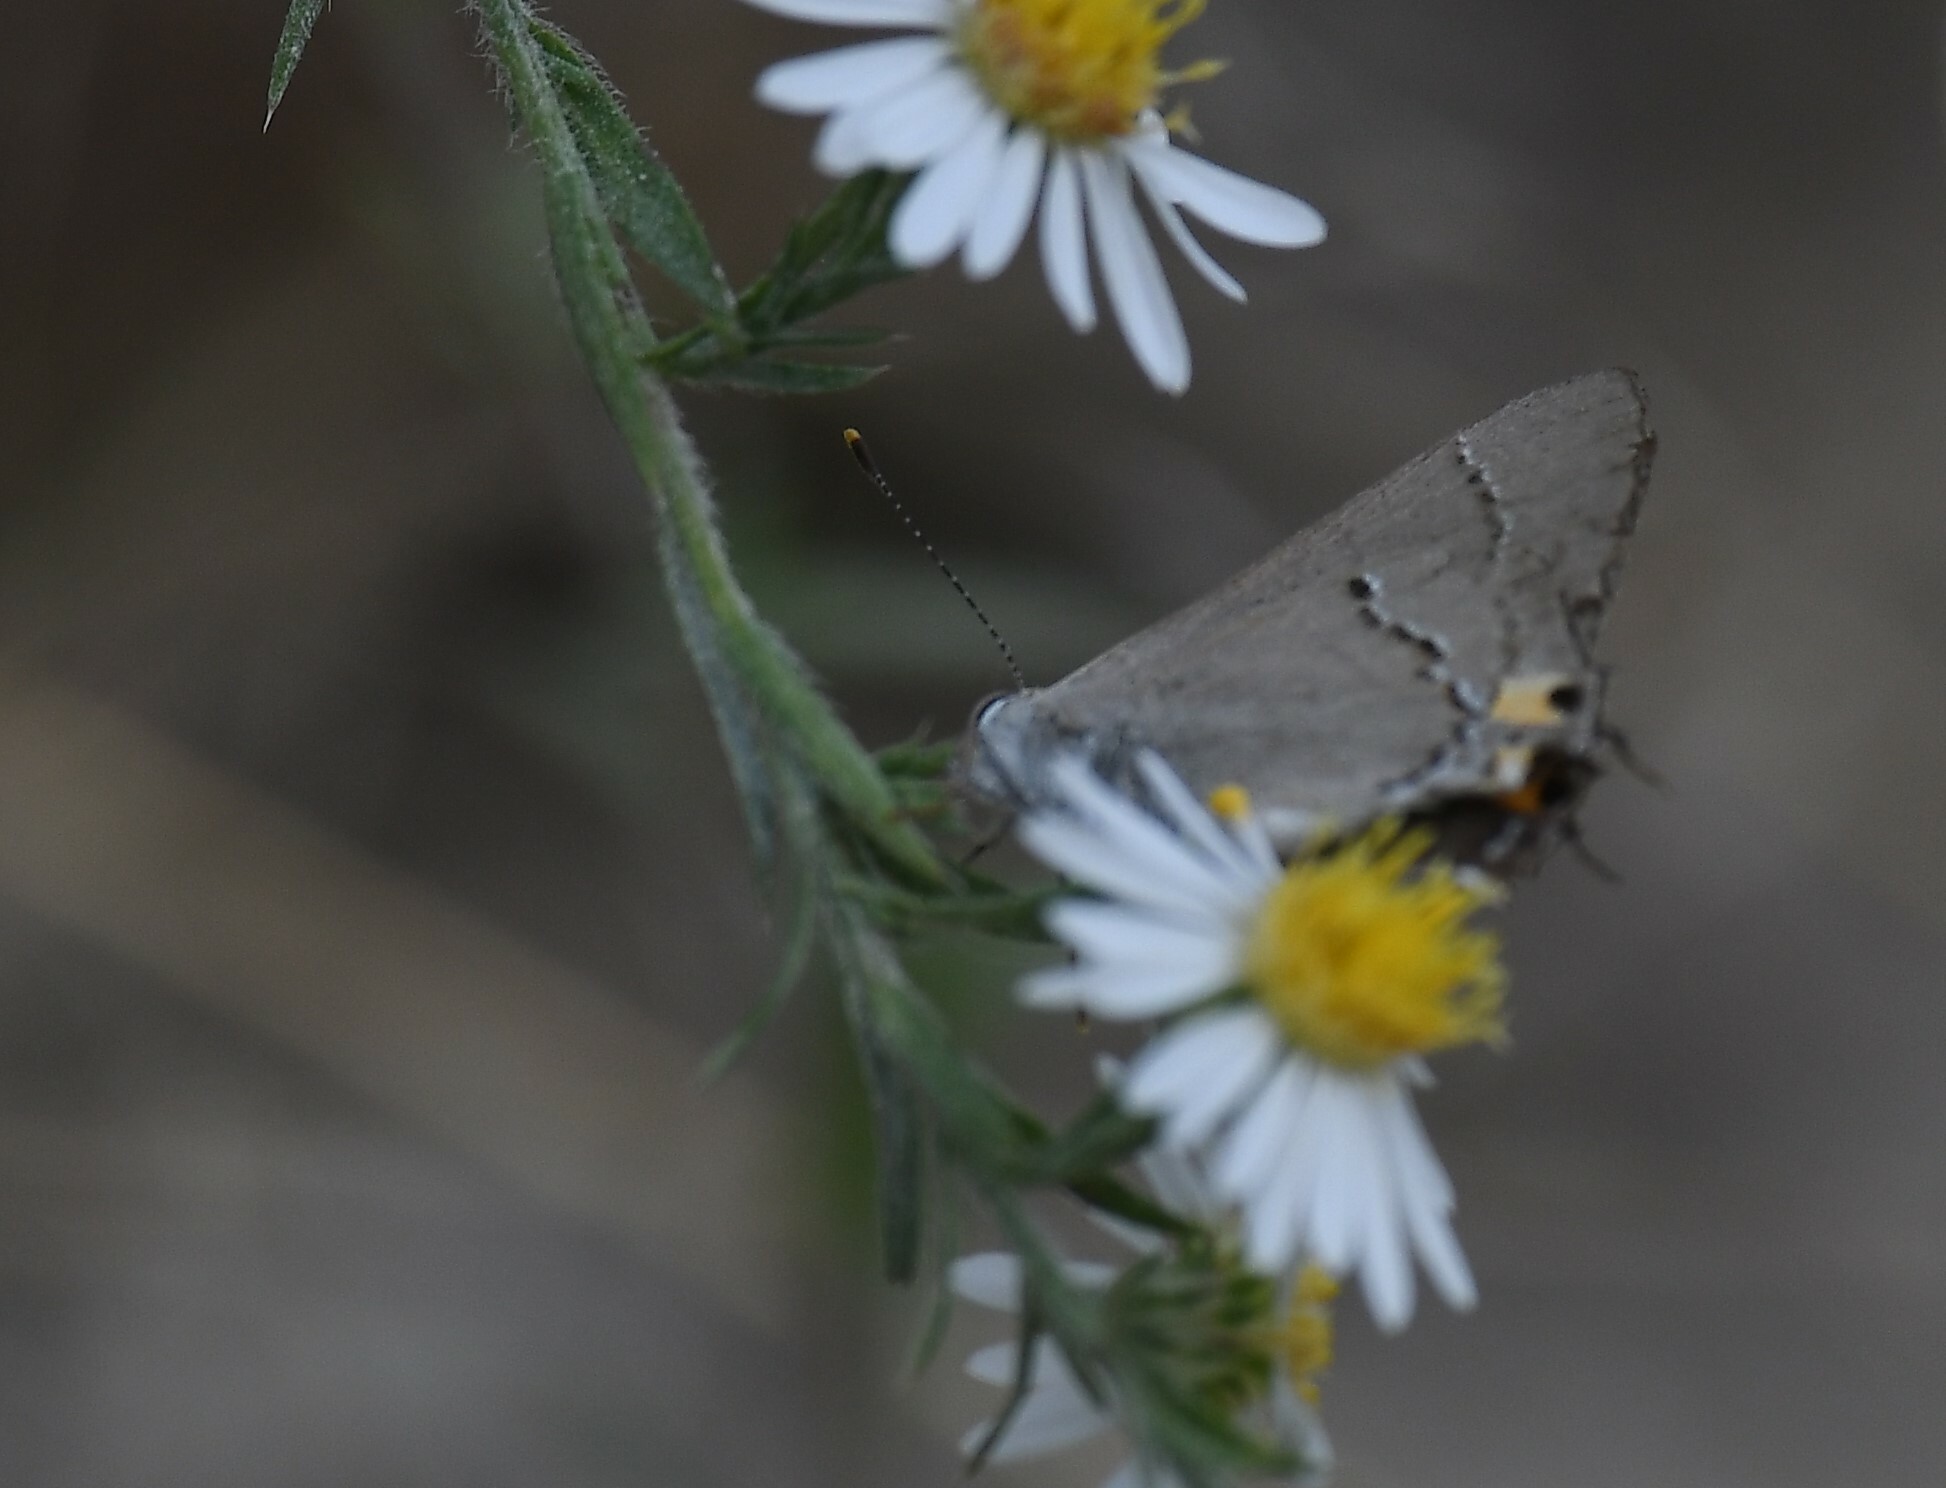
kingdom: Animalia
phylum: Arthropoda
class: Insecta
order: Lepidoptera
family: Lycaenidae
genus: Strymon
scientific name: Strymon melinus
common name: Gray hairstreak
